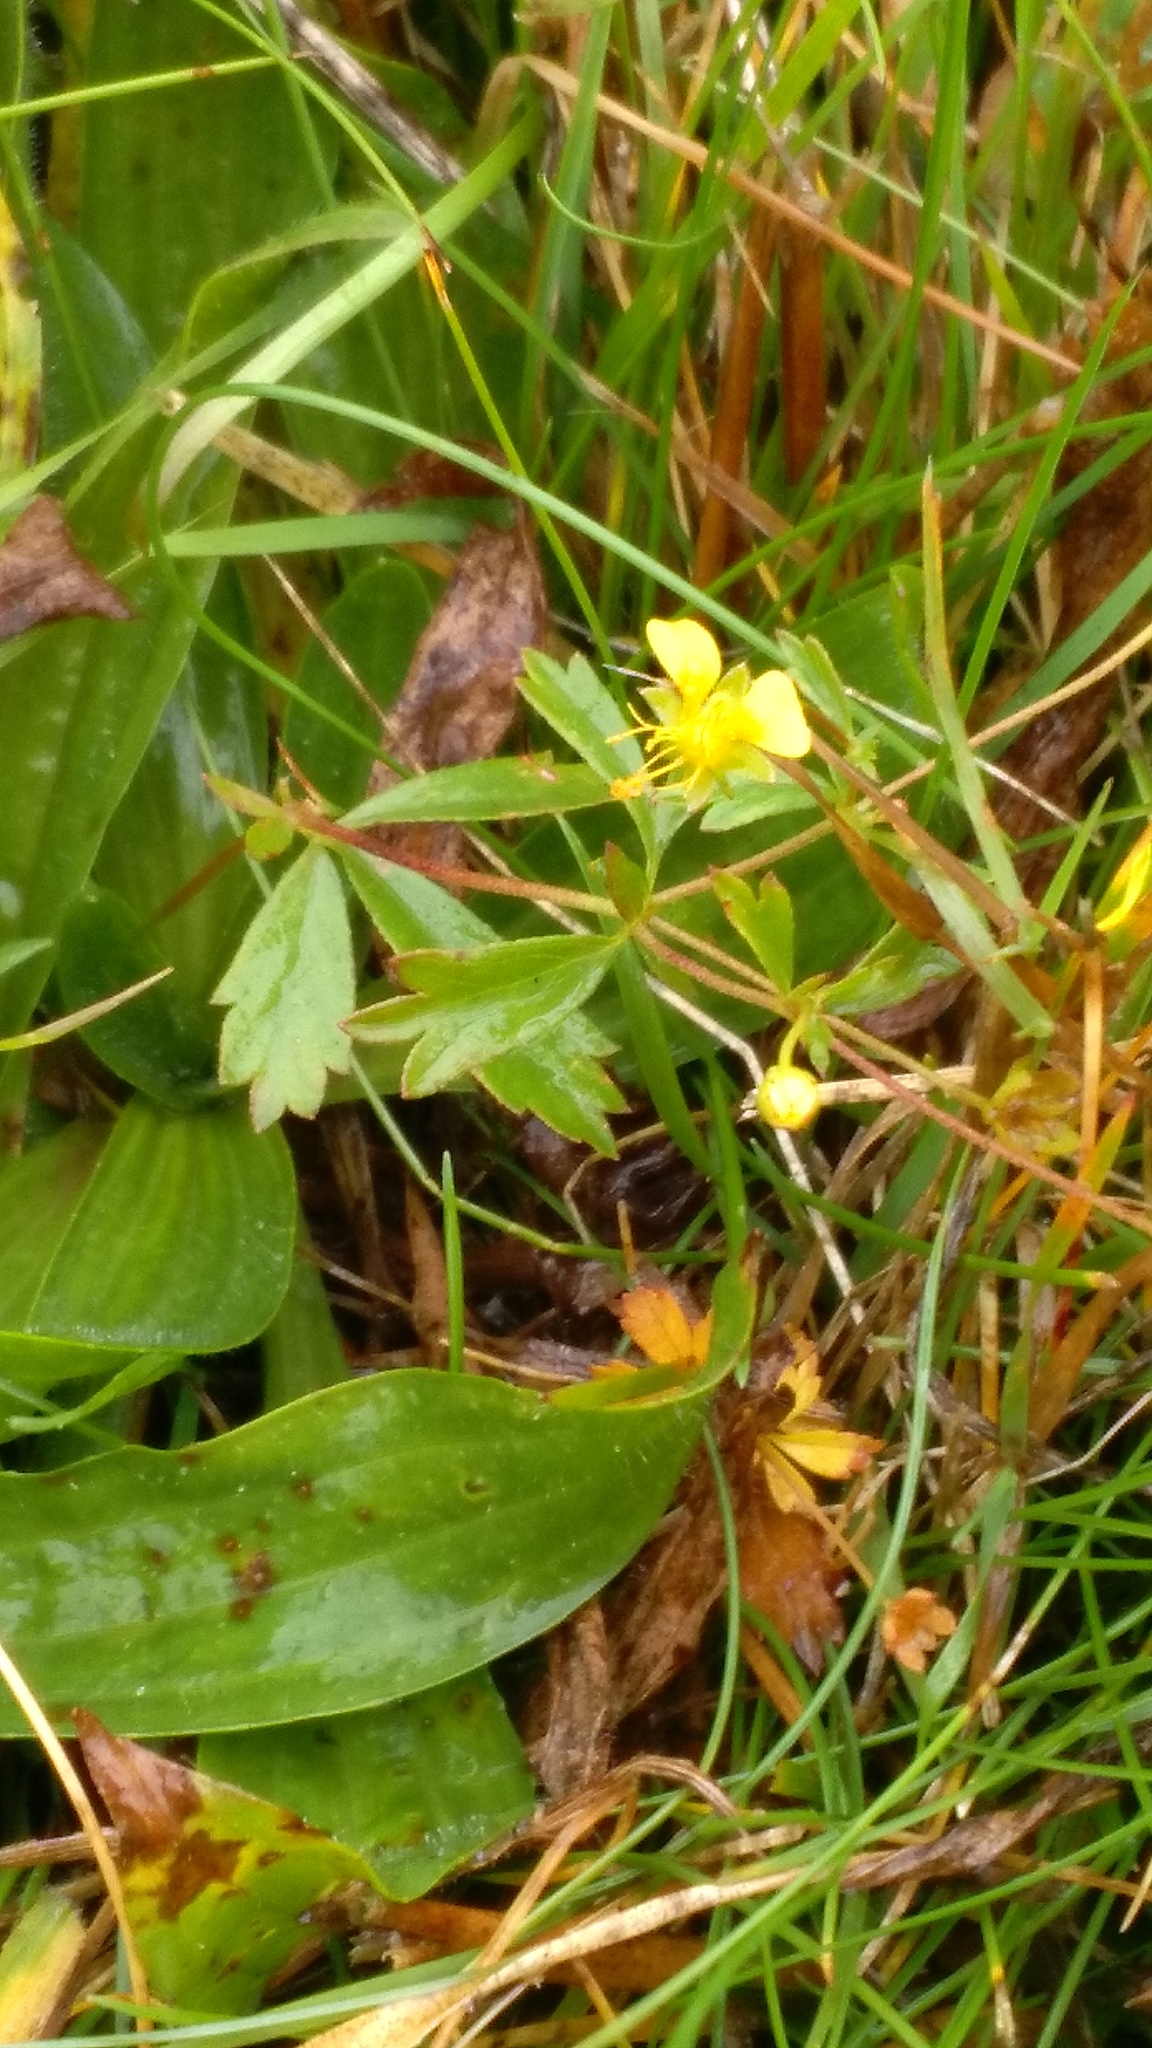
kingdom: Plantae
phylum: Tracheophyta
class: Magnoliopsida
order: Rosales
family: Rosaceae
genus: Potentilla
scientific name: Potentilla erecta
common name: Tormentil
